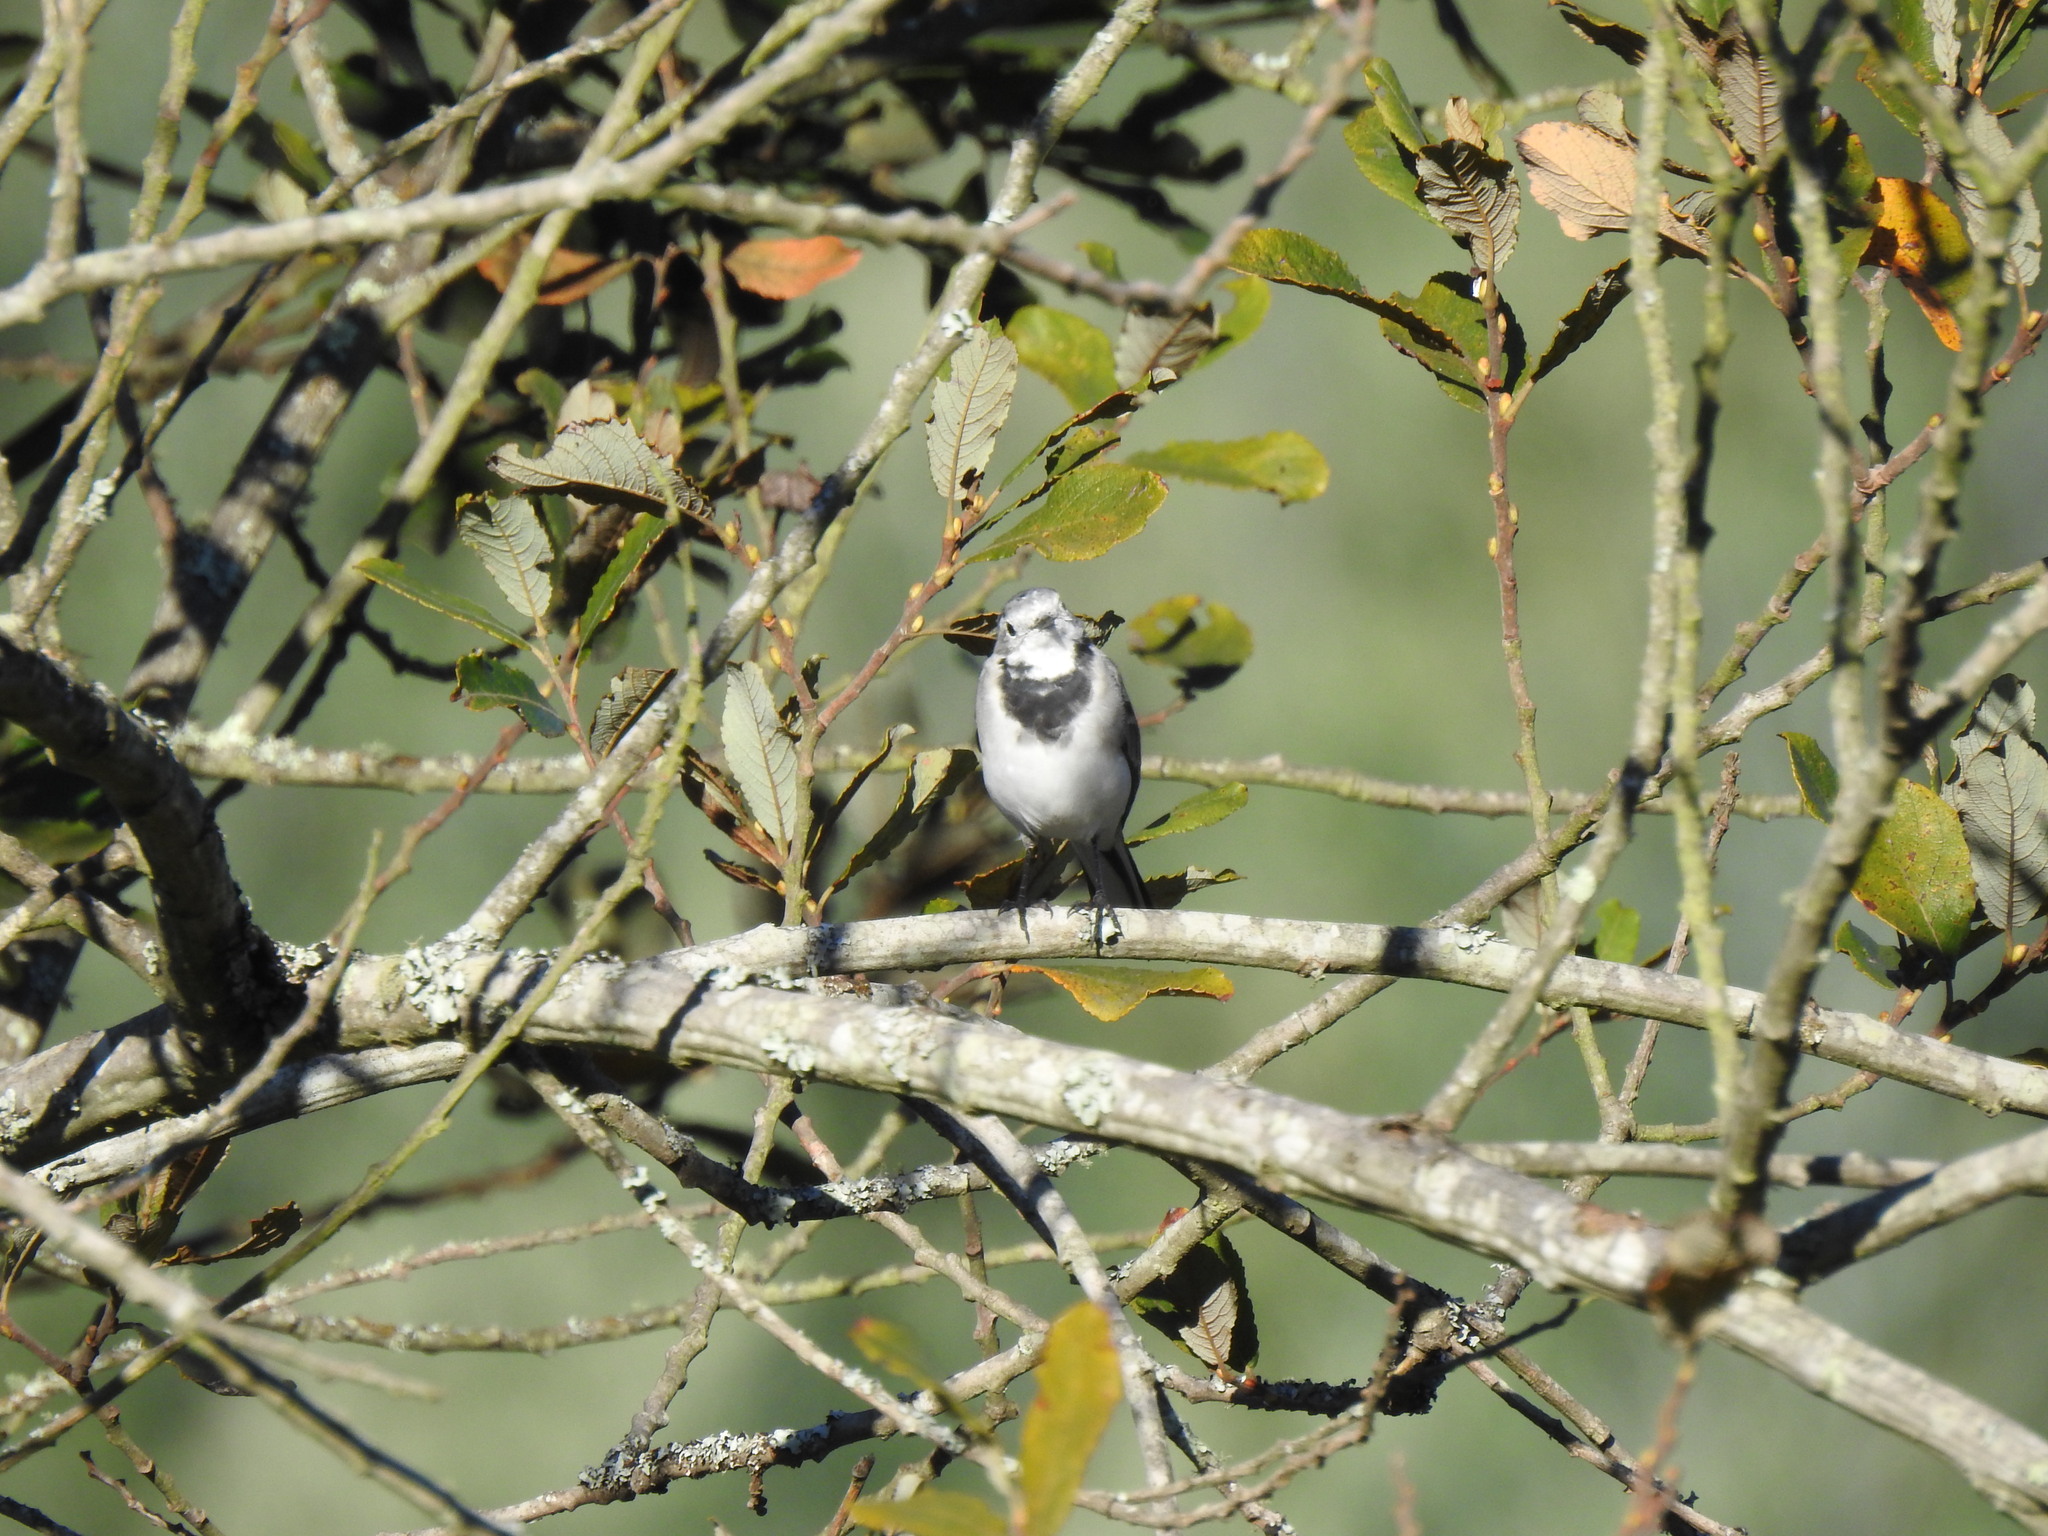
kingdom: Animalia
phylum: Chordata
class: Aves
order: Passeriformes
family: Motacillidae
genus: Motacilla
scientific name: Motacilla alba
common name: White wagtail
